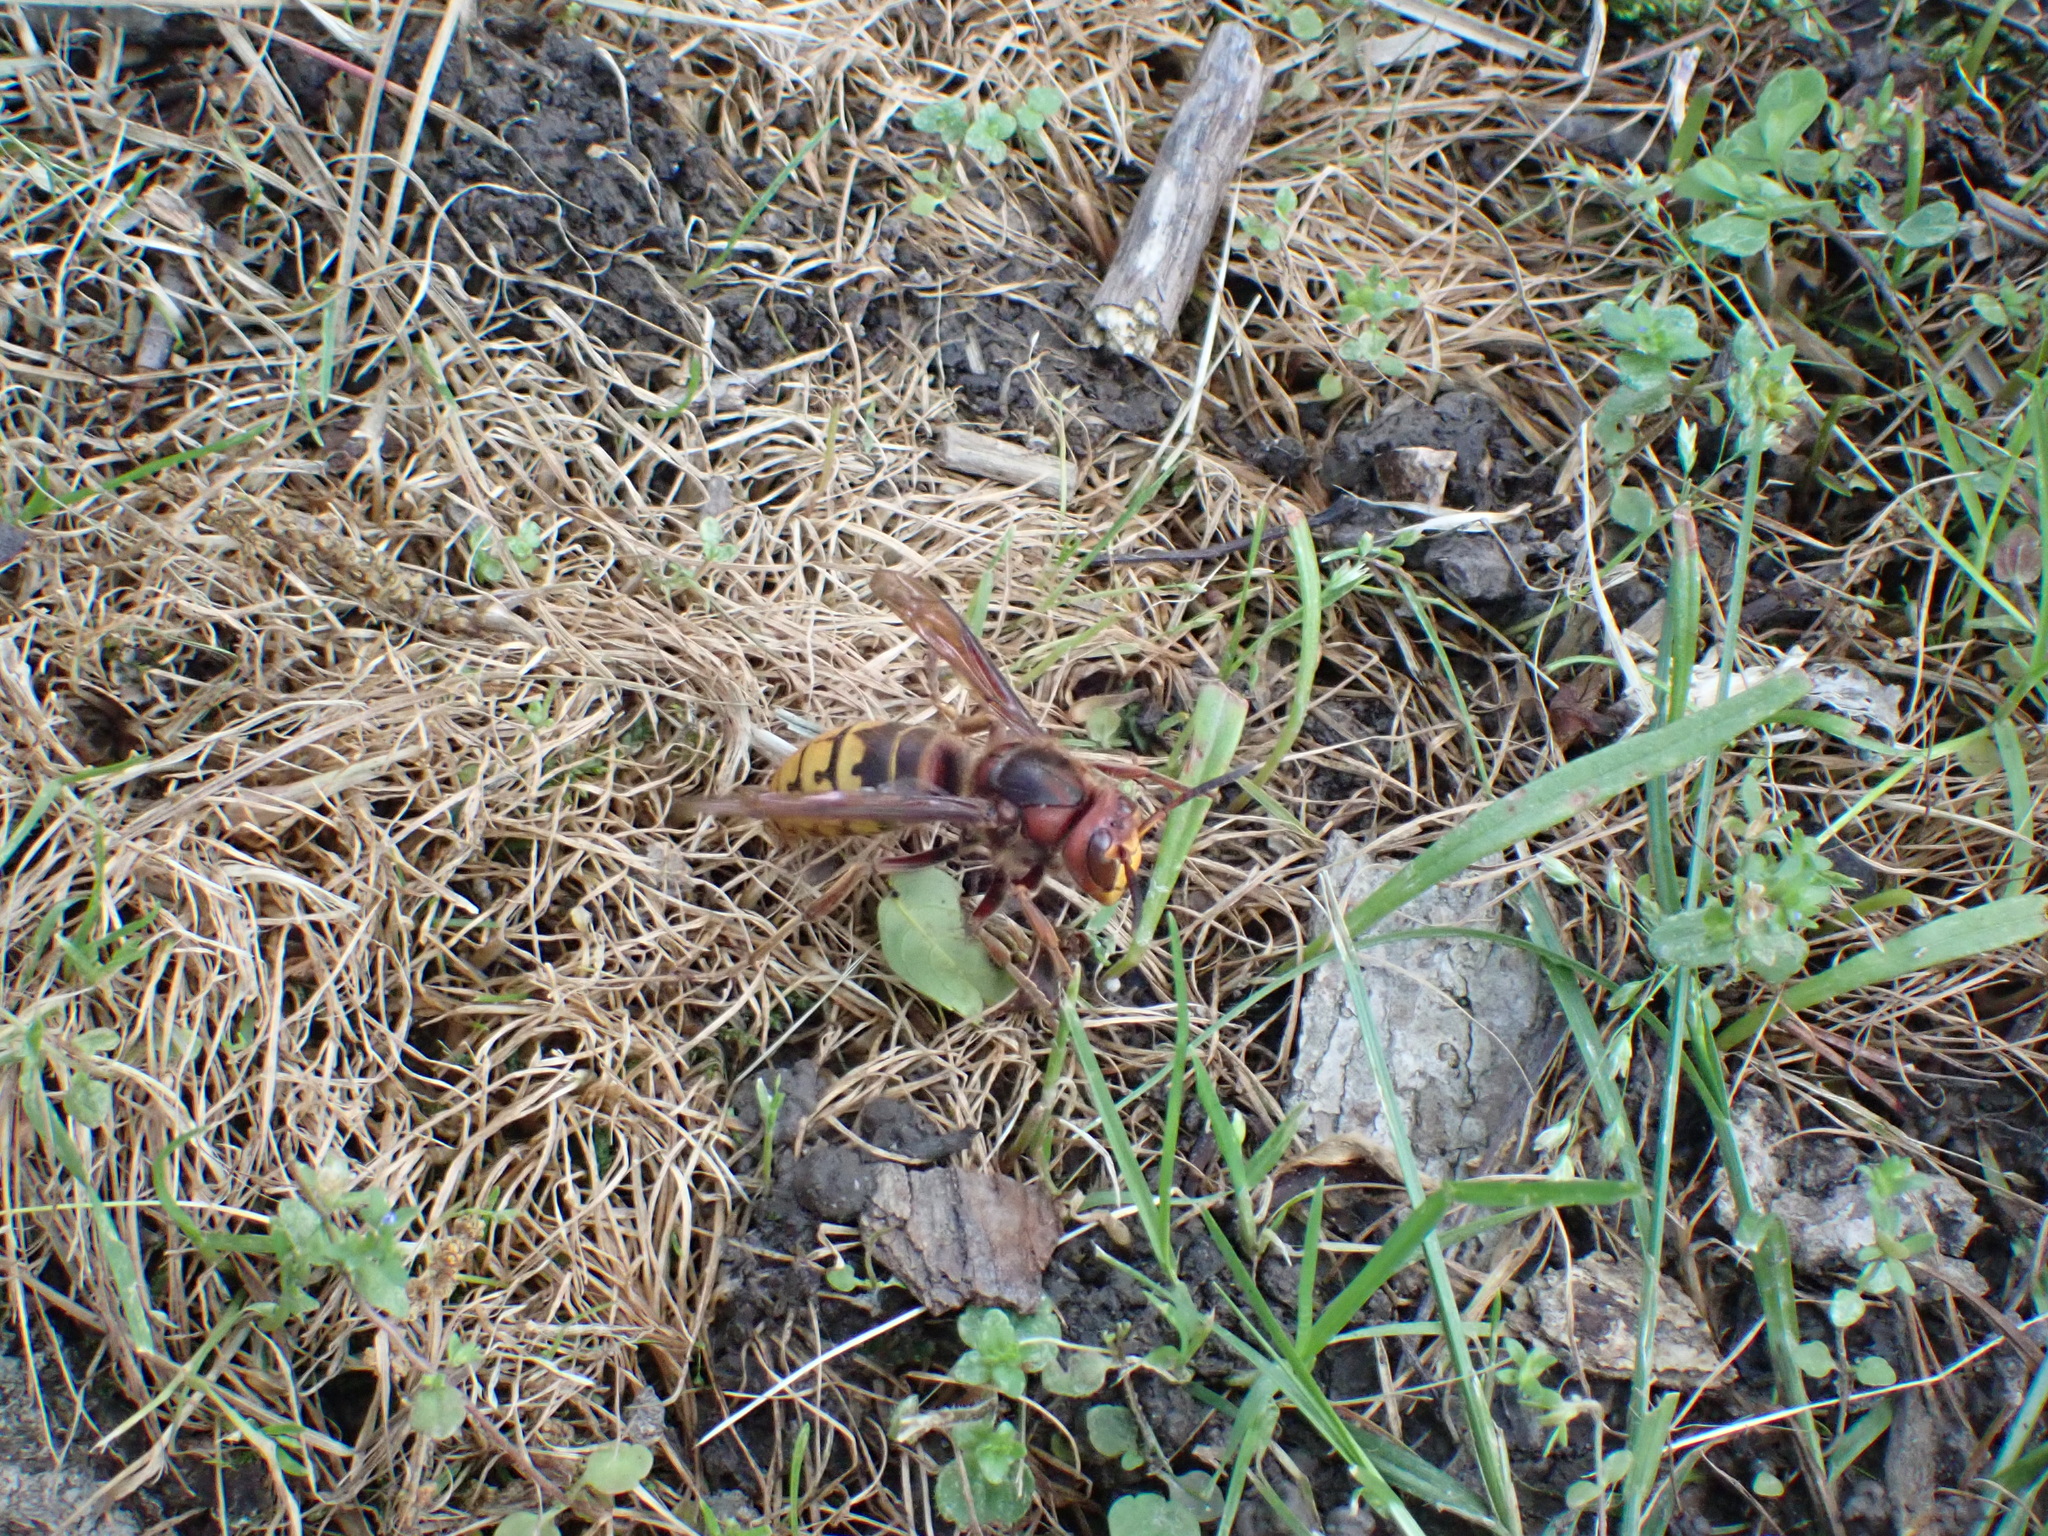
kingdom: Animalia
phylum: Arthropoda
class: Insecta
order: Hymenoptera
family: Vespidae
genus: Vespa
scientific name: Vespa crabro
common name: Hornet
